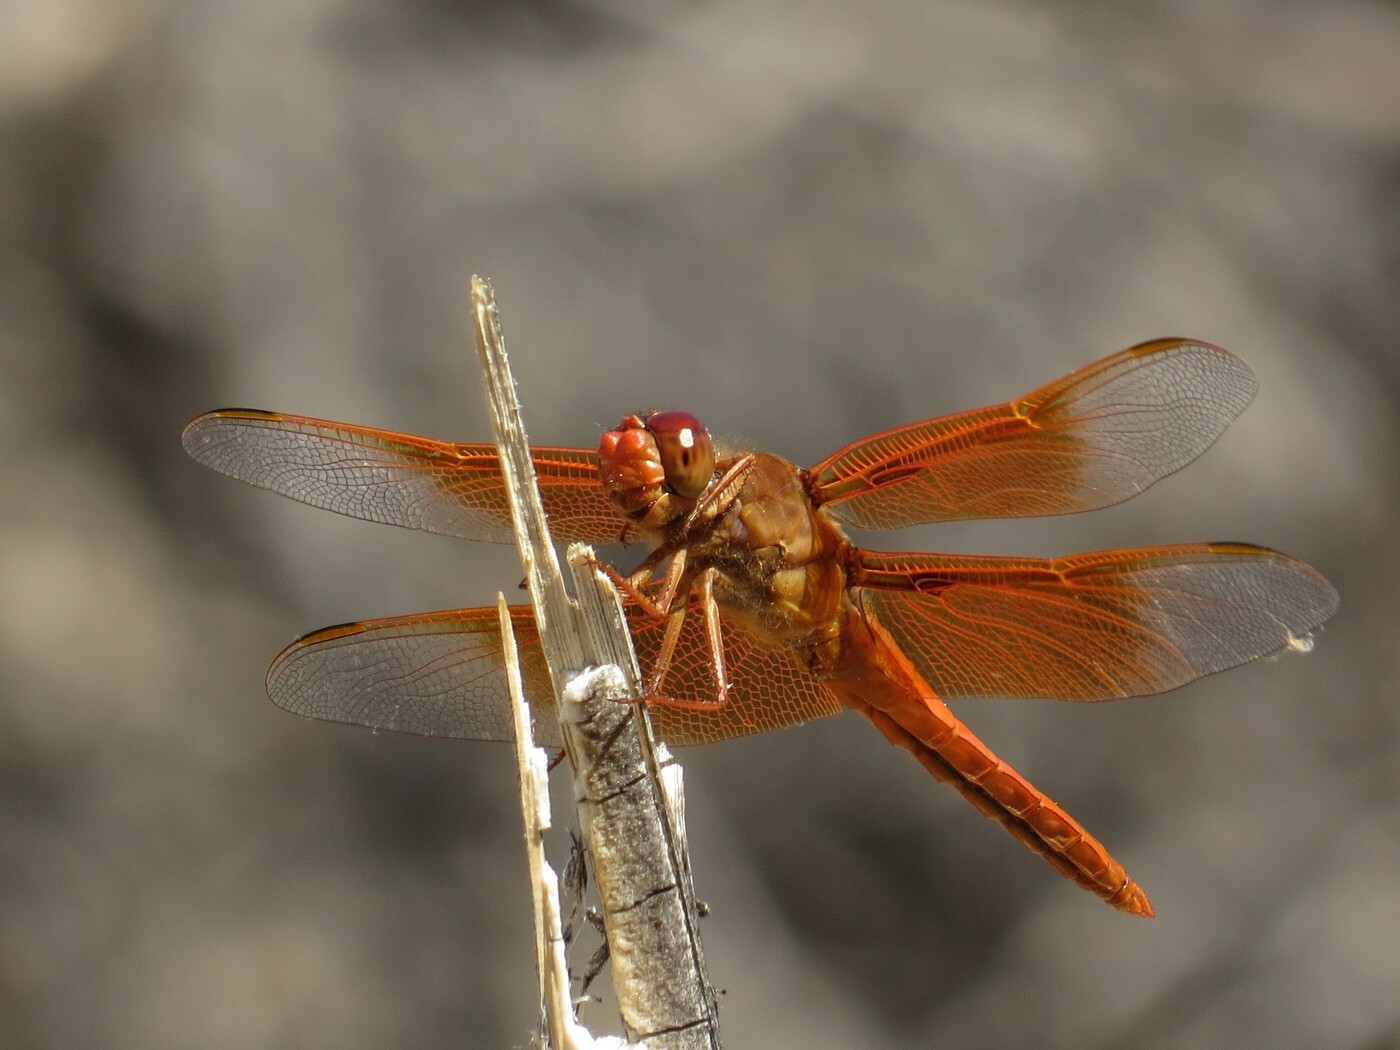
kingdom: Animalia
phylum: Arthropoda
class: Insecta
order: Odonata
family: Libellulidae
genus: Libellula
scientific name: Libellula saturata
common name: Flame skimmer
